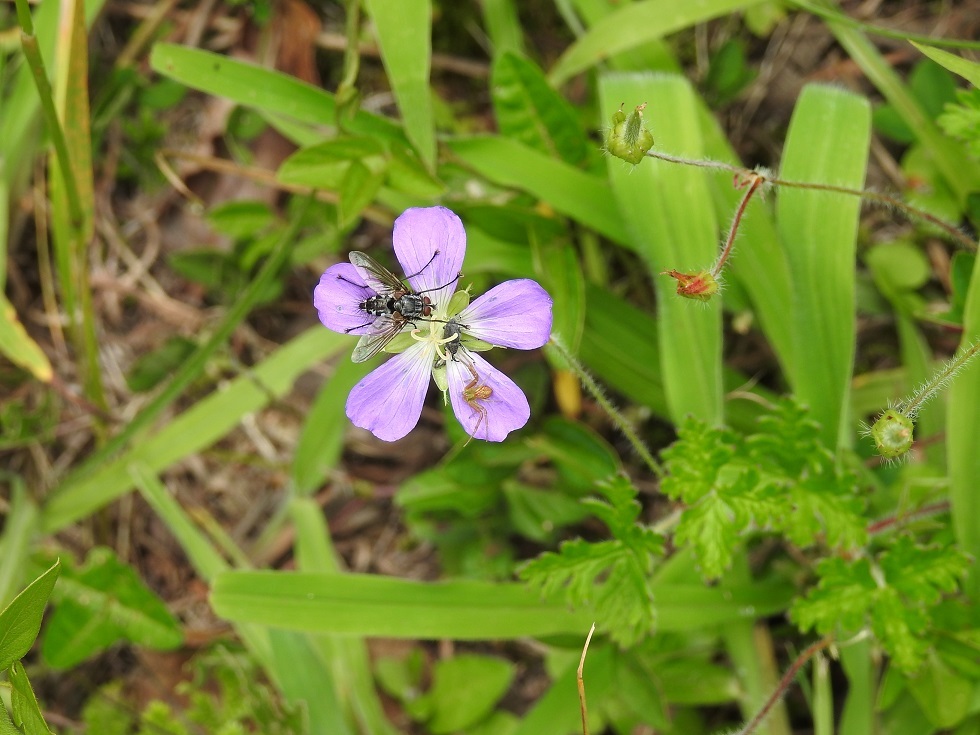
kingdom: Plantae
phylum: Tracheophyta
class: Magnoliopsida
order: Geraniales
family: Geraniaceae
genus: Geranium
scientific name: Geranium goldmanii
